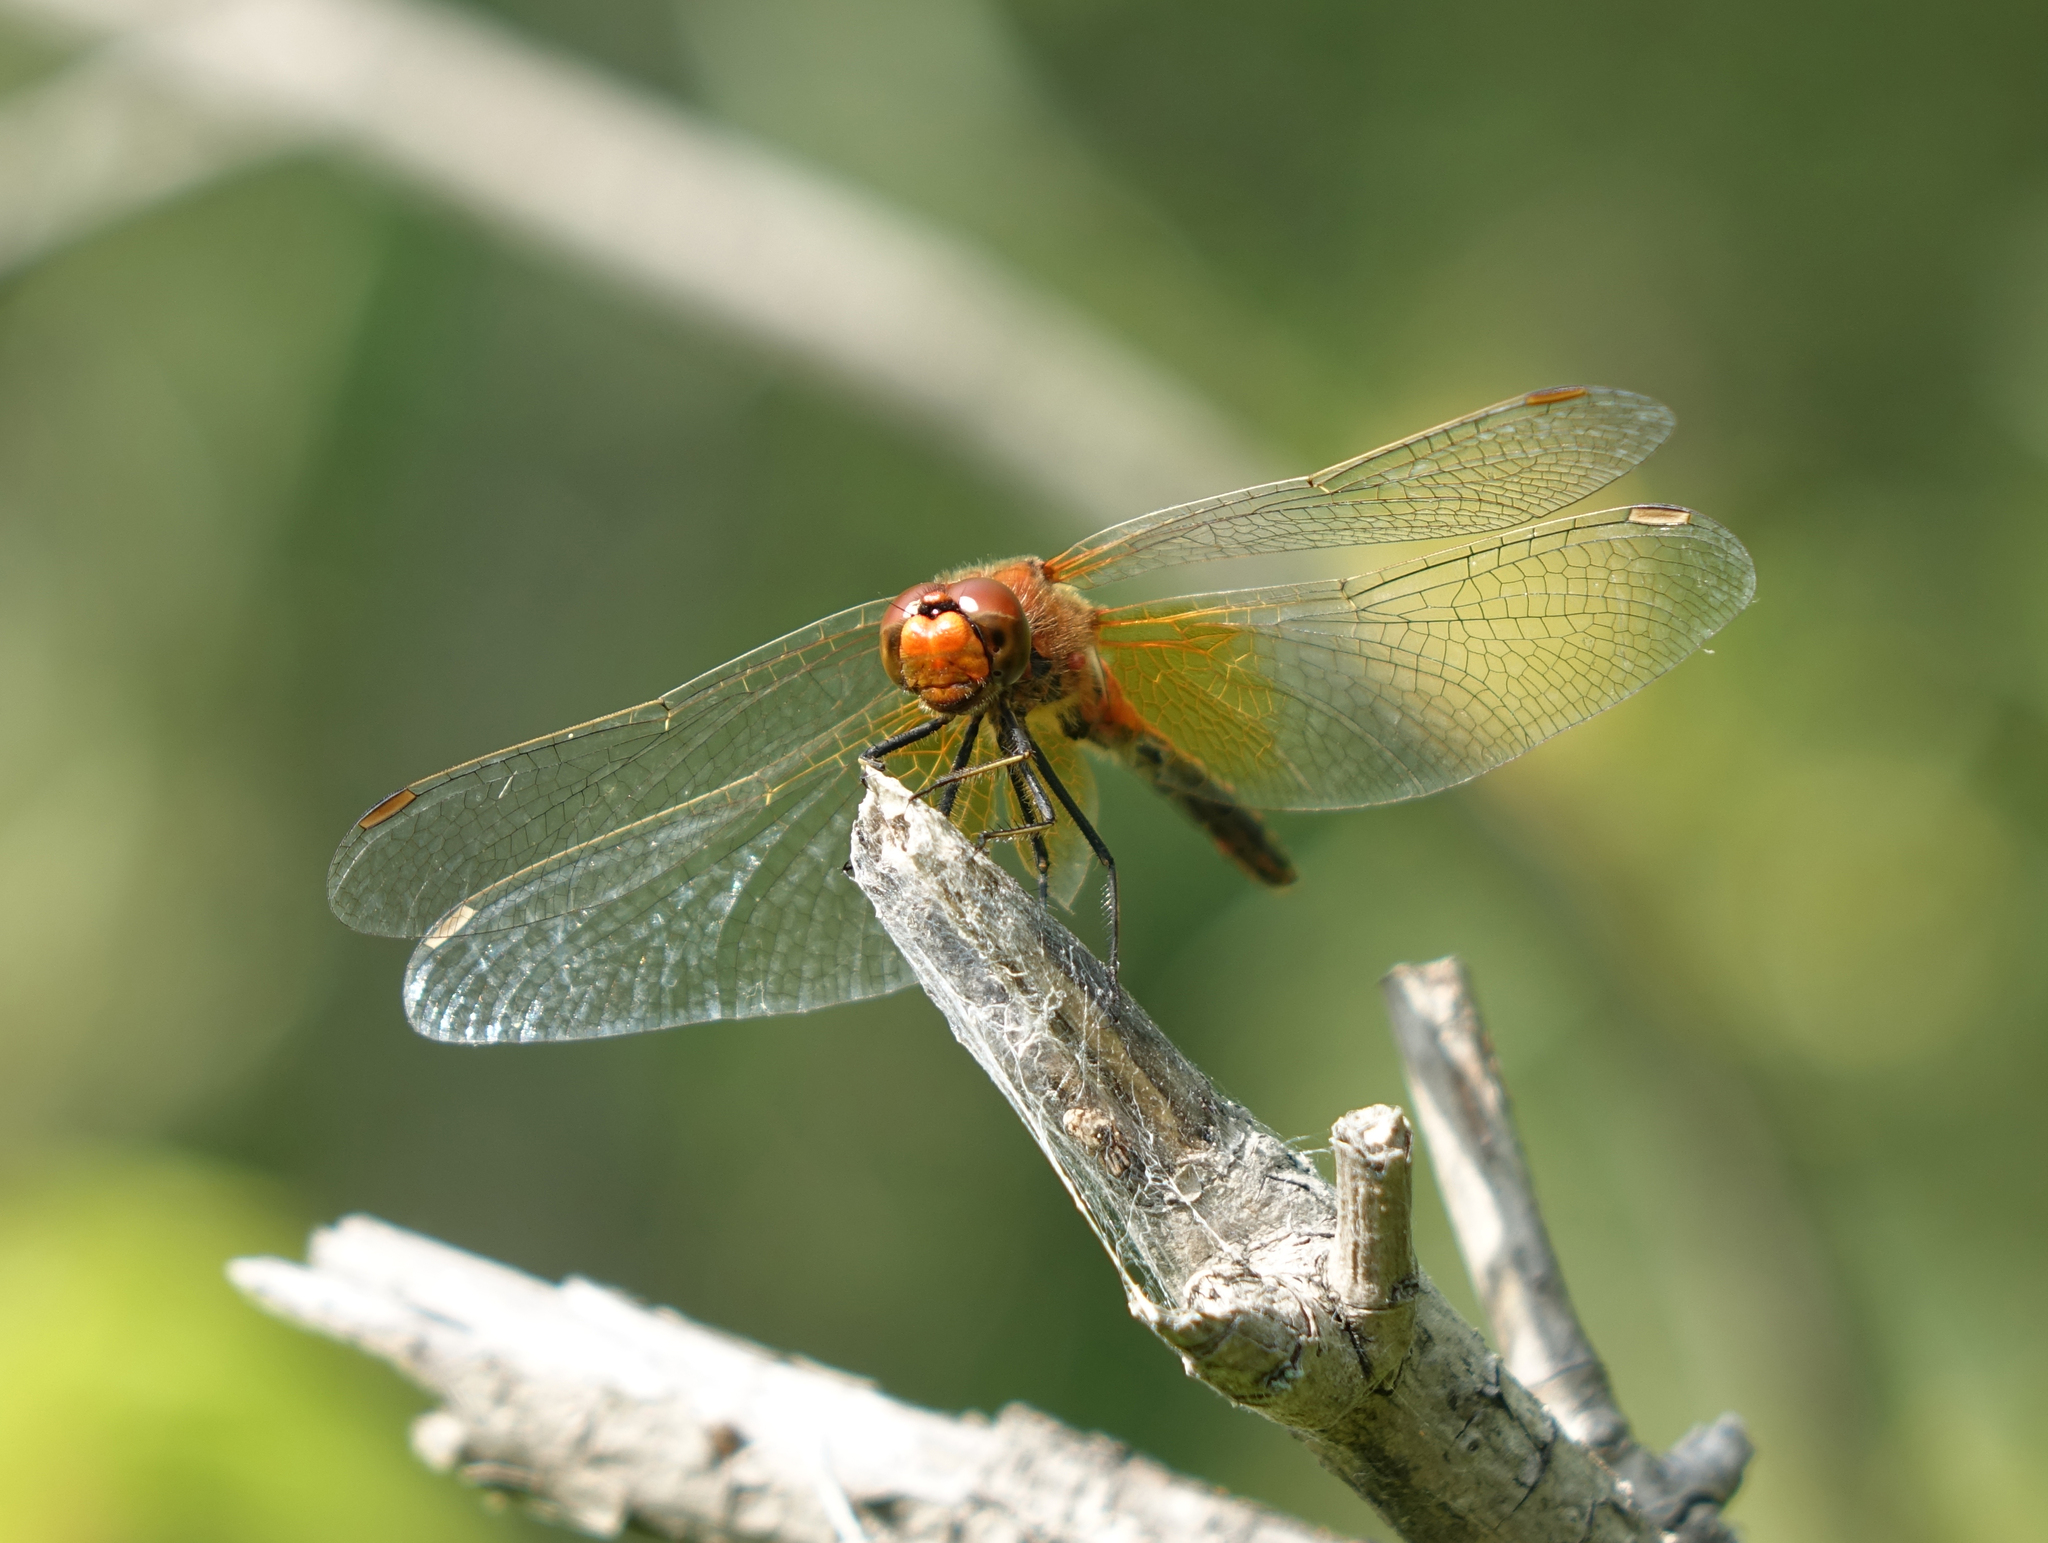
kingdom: Animalia
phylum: Arthropoda
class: Insecta
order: Odonata
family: Libellulidae
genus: Sympetrum
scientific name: Sympetrum flaveolum
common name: Yellow-winged darter
